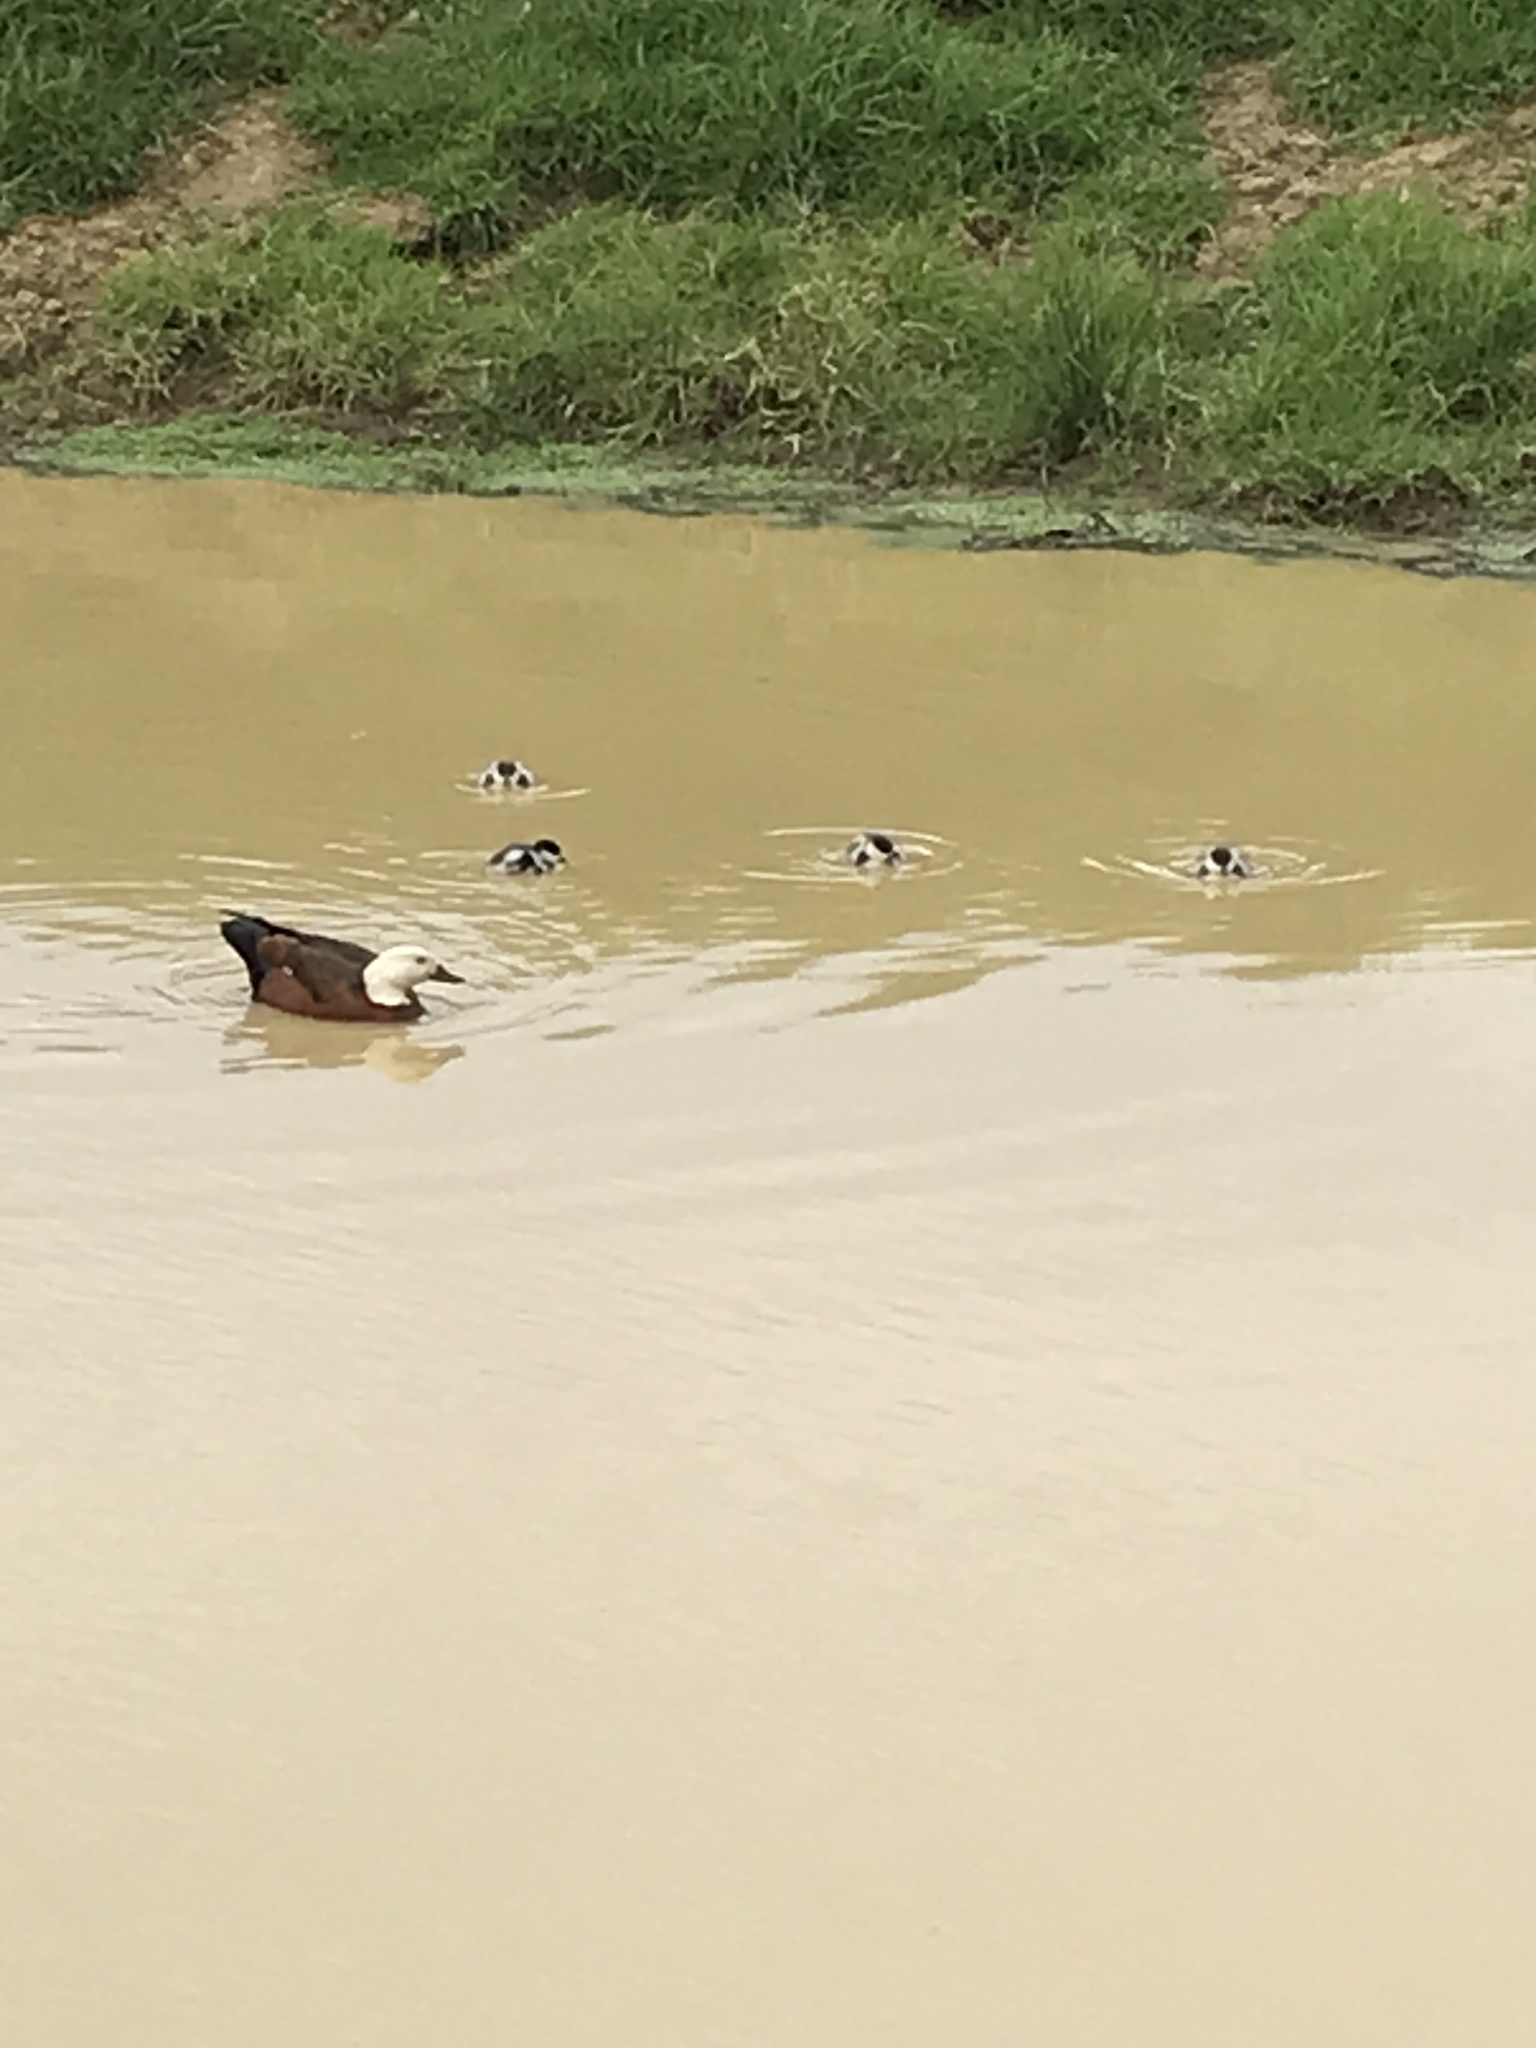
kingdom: Animalia
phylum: Chordata
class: Aves
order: Anseriformes
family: Anatidae
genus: Tadorna
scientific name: Tadorna variegata
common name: Paradise shelduck
